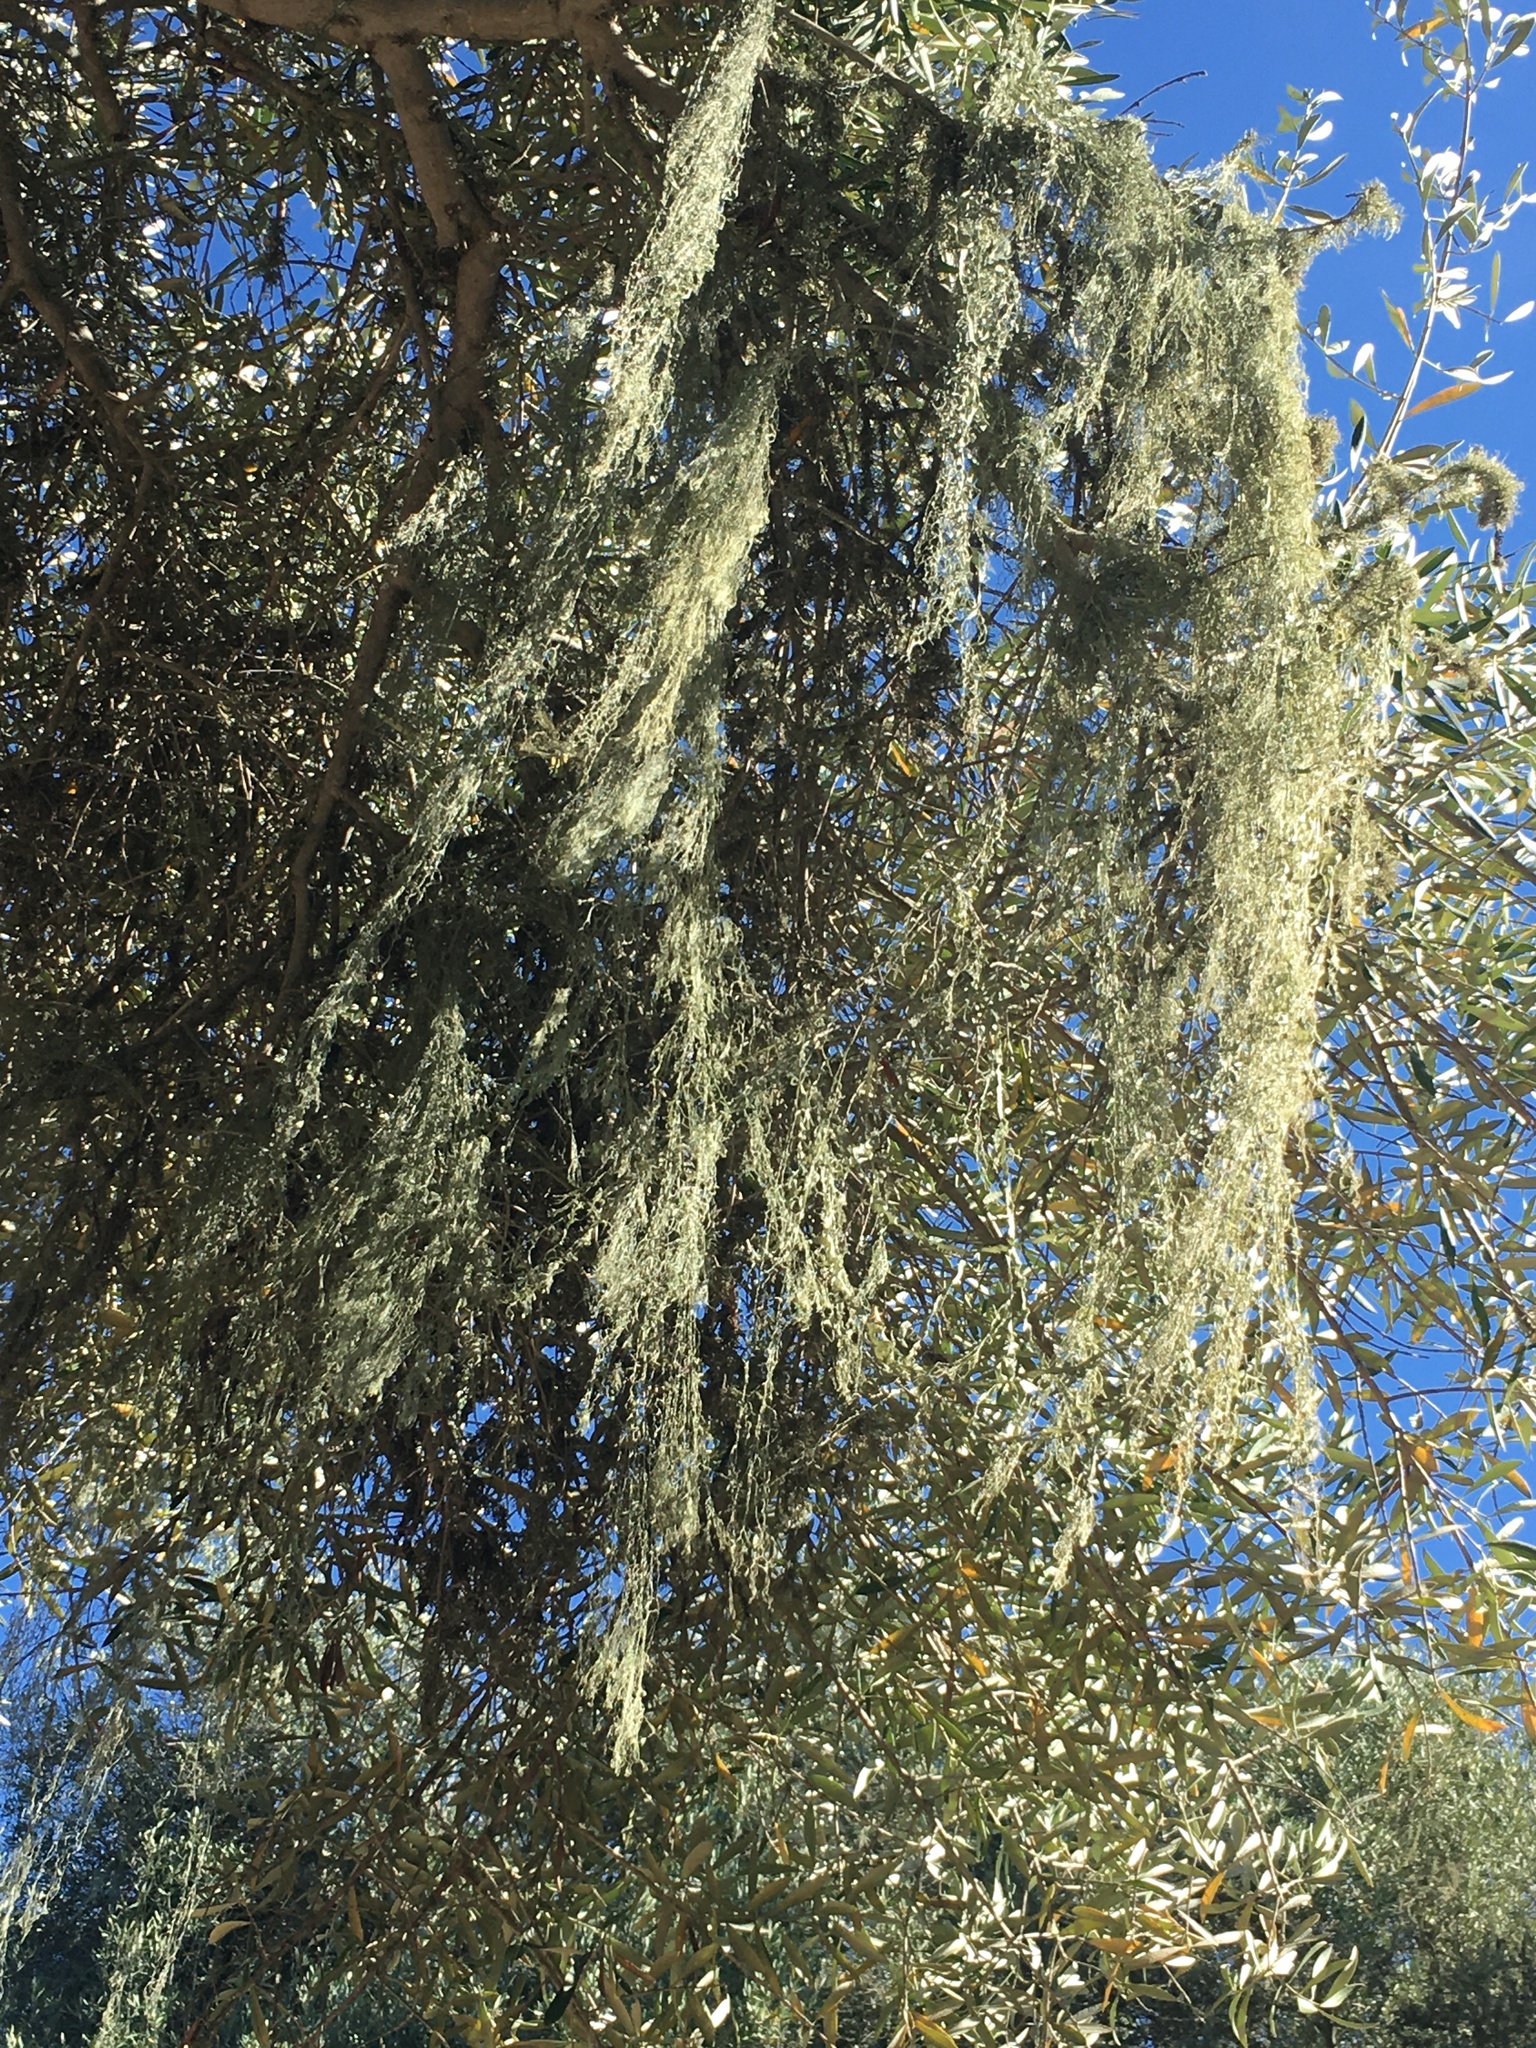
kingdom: Fungi
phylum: Ascomycota
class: Lecanoromycetes
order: Lecanorales
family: Ramalinaceae
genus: Ramalina
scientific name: Ramalina menziesii
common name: Lace lichen
